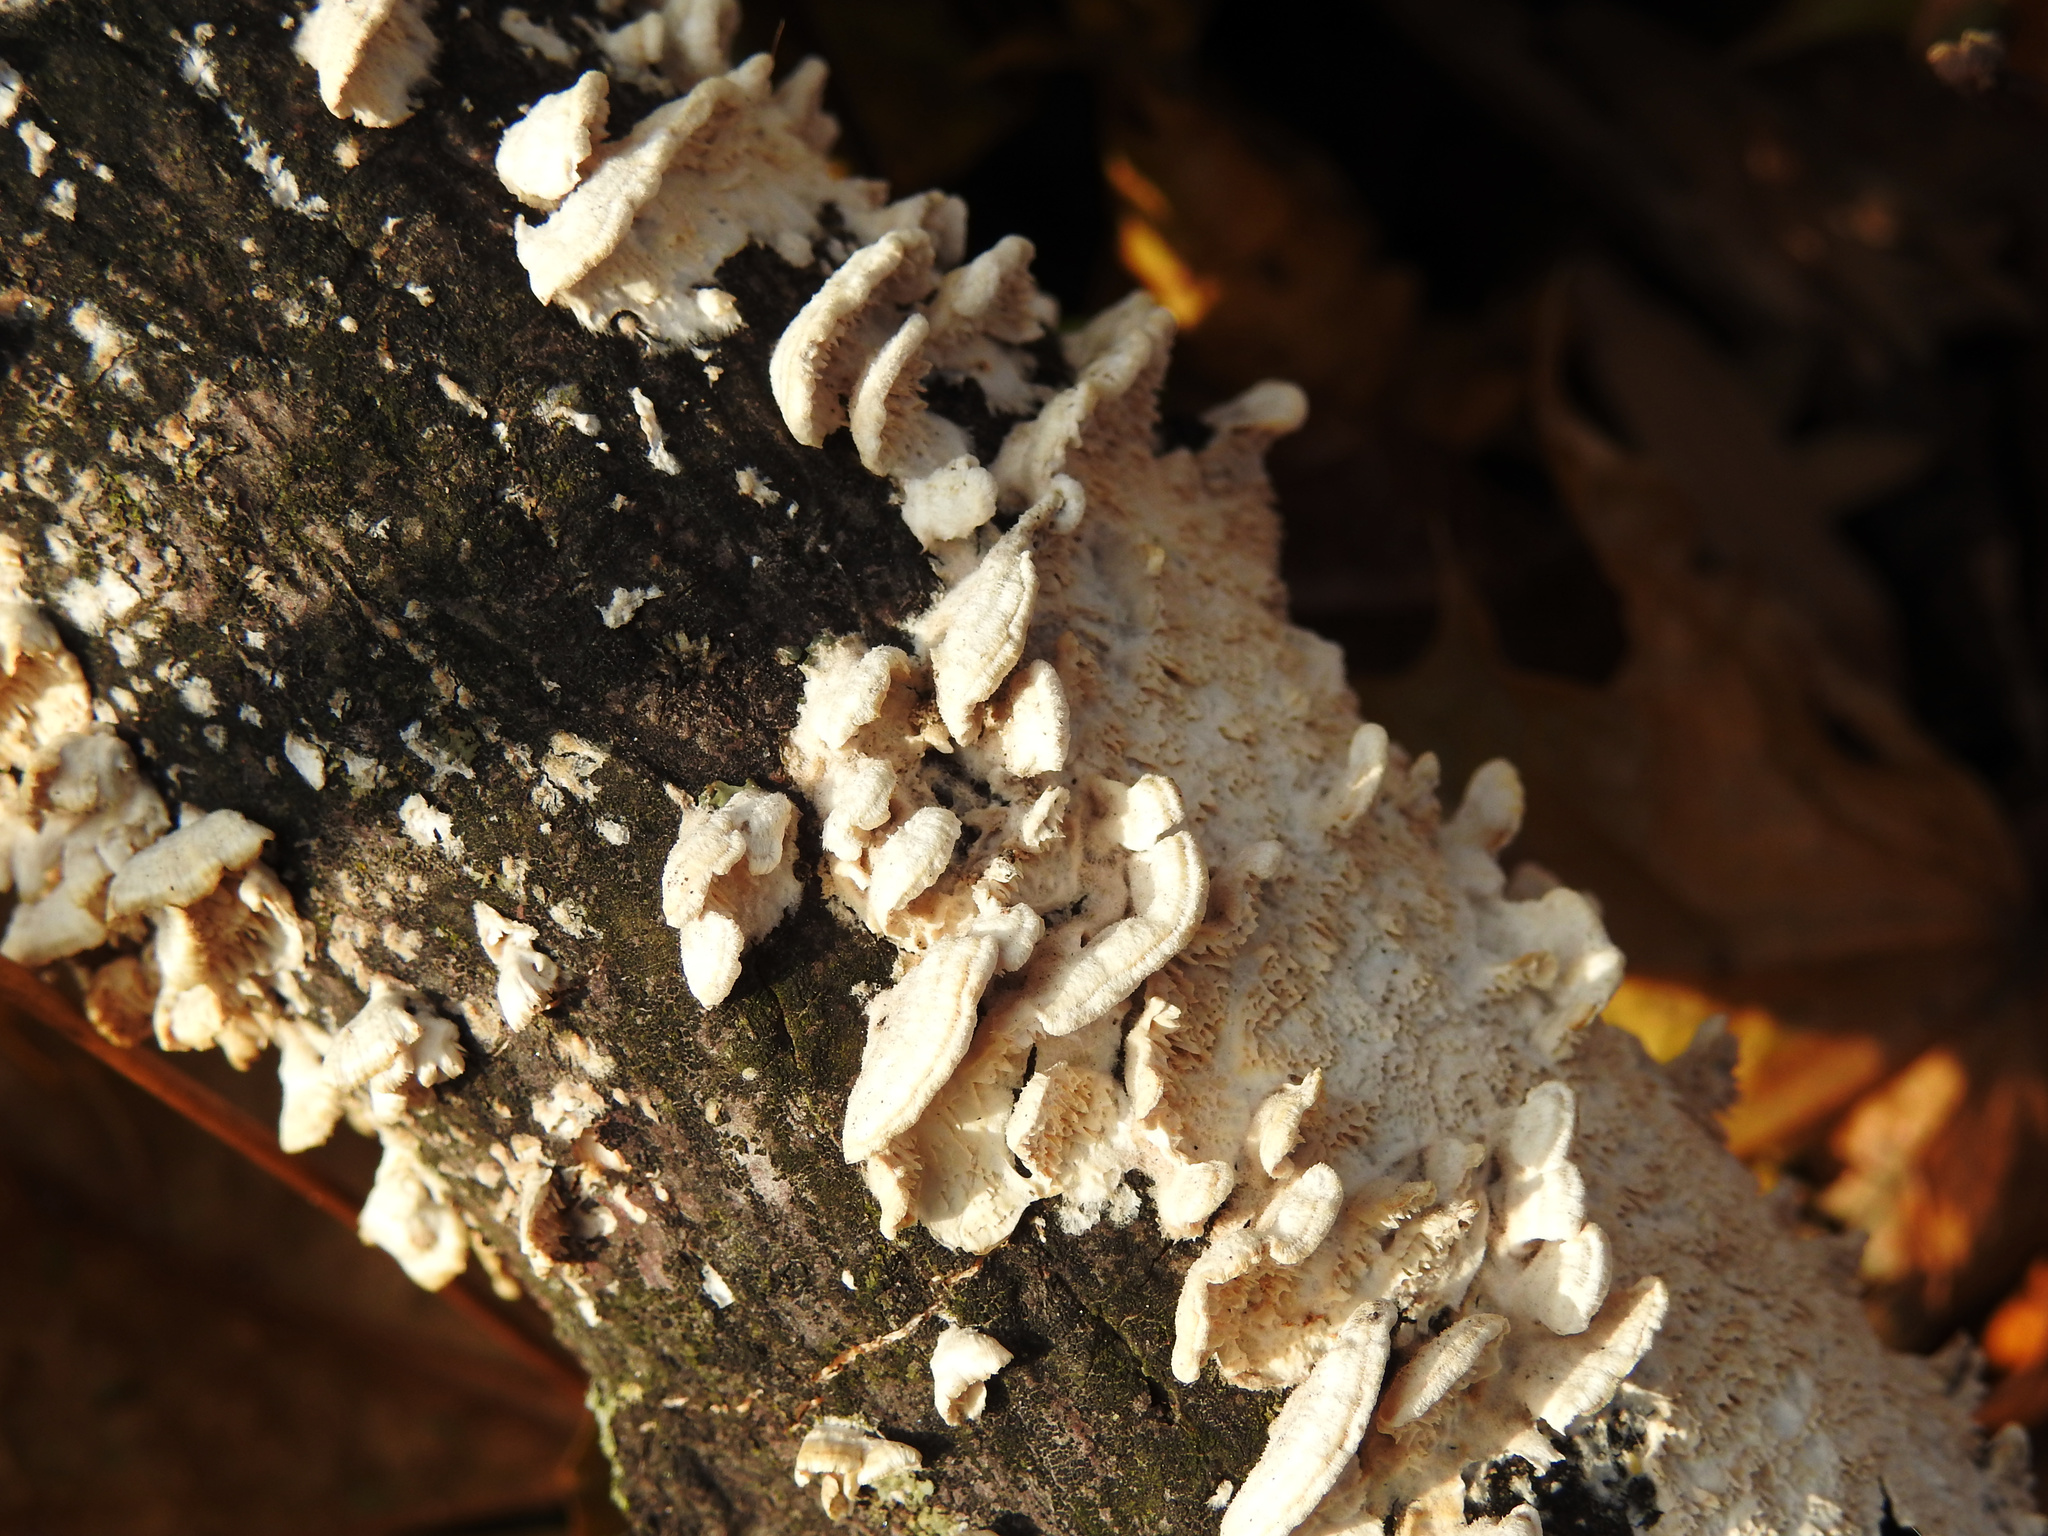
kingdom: Fungi
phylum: Basidiomycota
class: Agaricomycetes
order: Polyporales
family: Irpicaceae
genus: Irpex
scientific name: Irpex lacteus
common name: Milk-white toothed polypore
